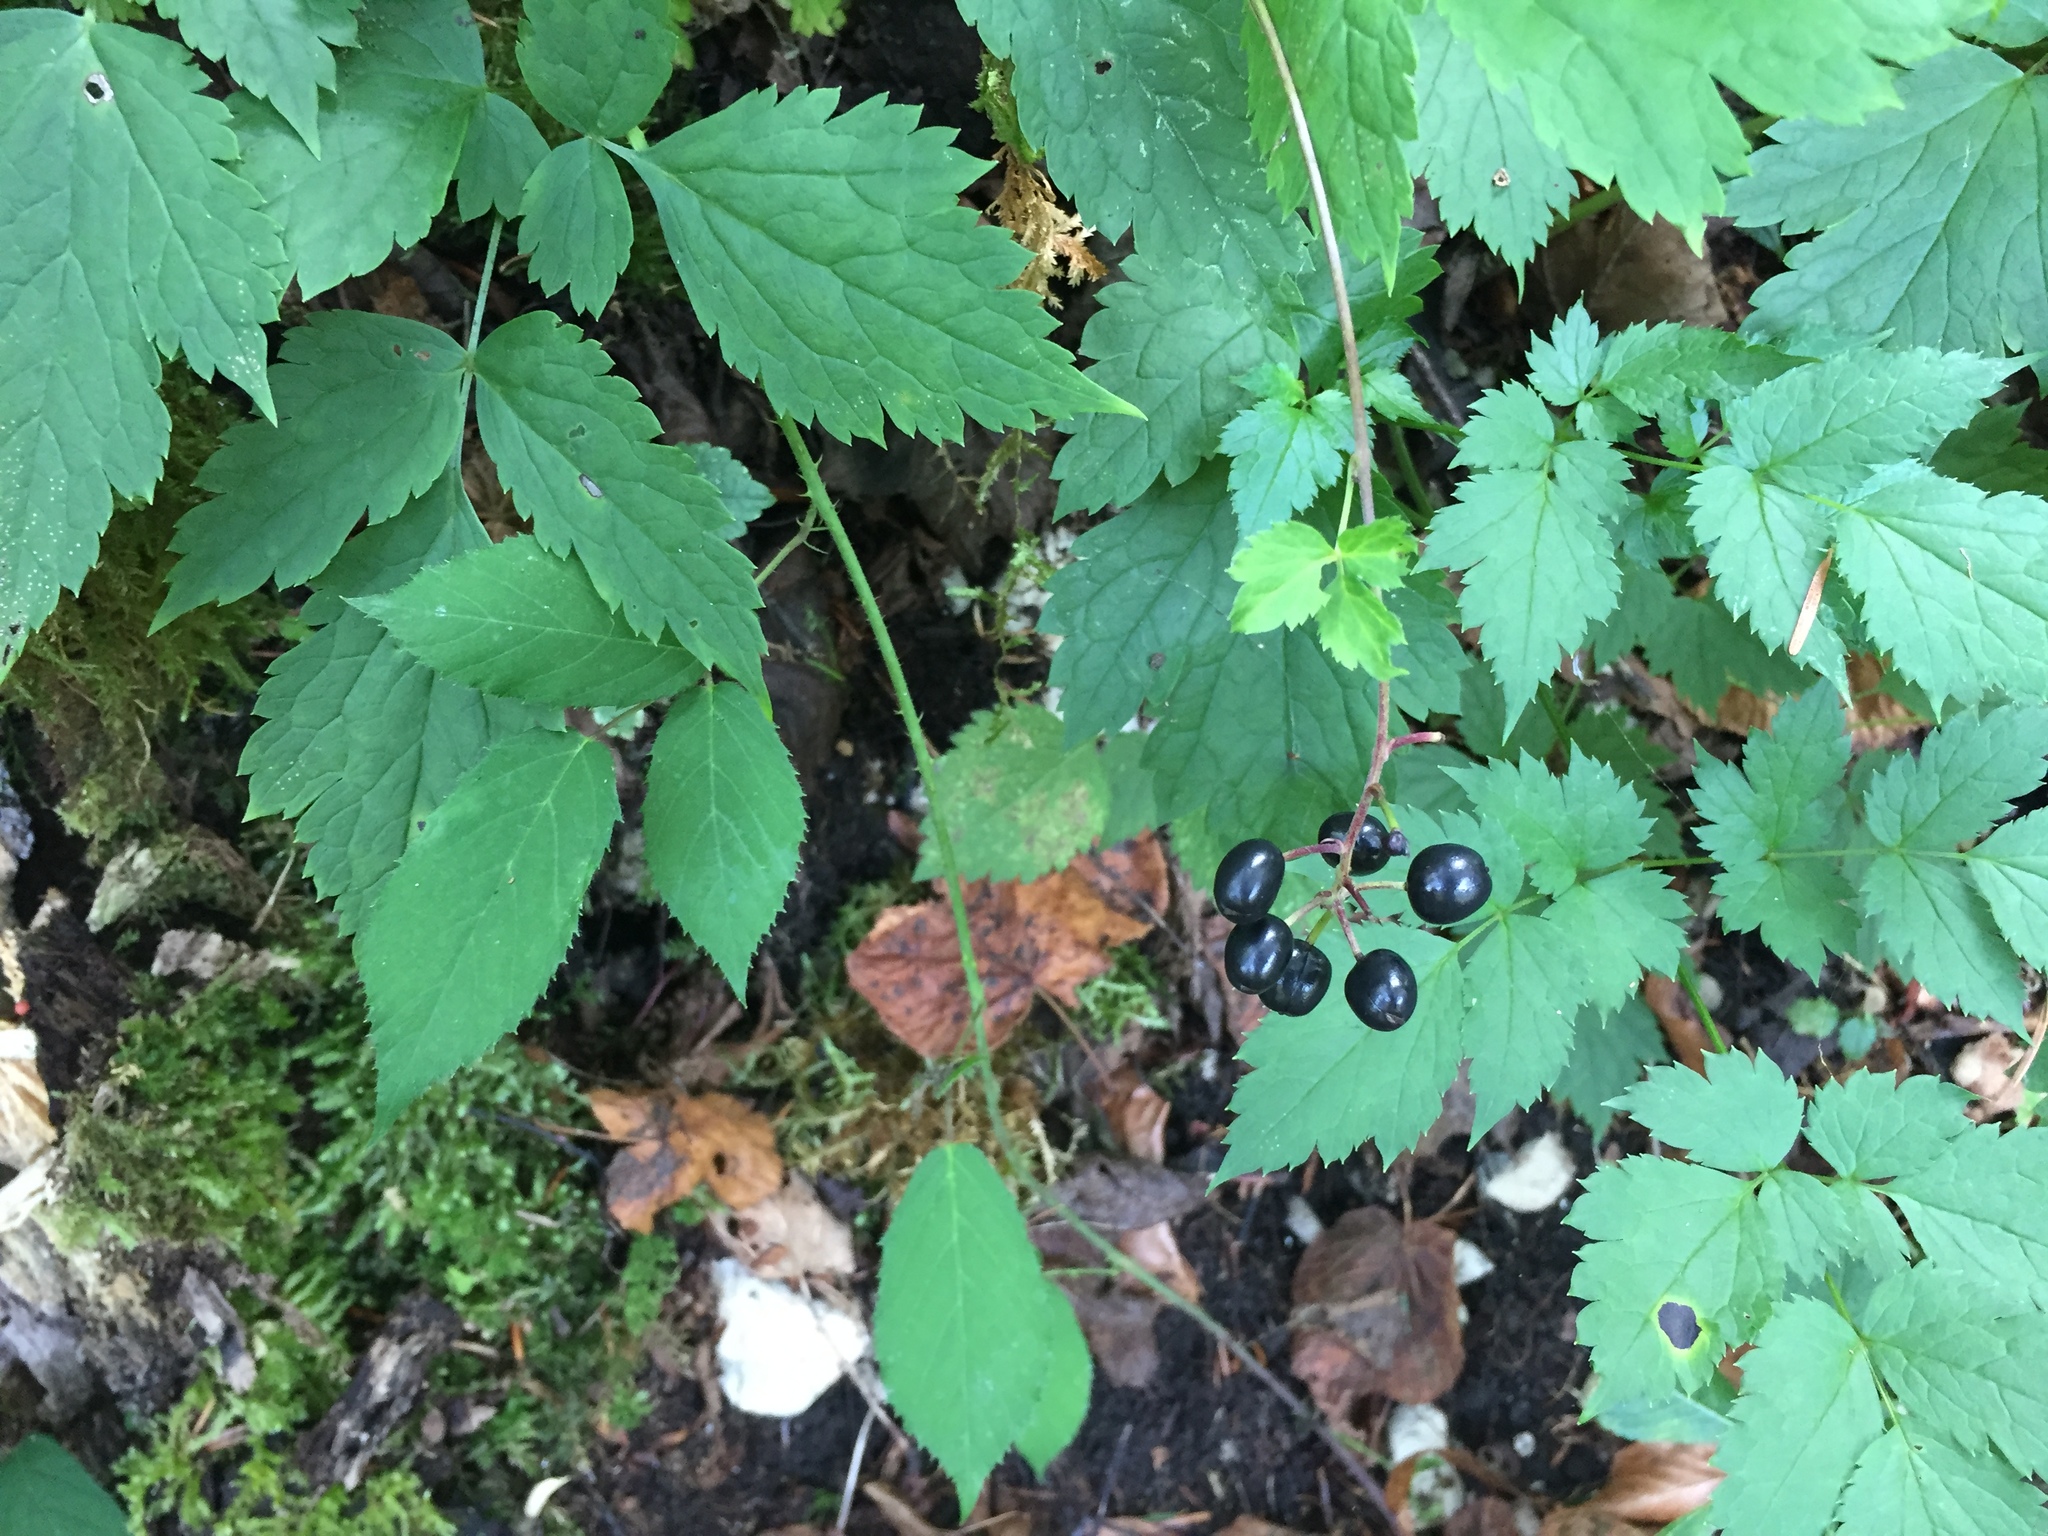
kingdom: Plantae
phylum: Tracheophyta
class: Magnoliopsida
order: Ranunculales
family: Ranunculaceae
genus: Actaea
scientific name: Actaea spicata
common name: Baneberry
